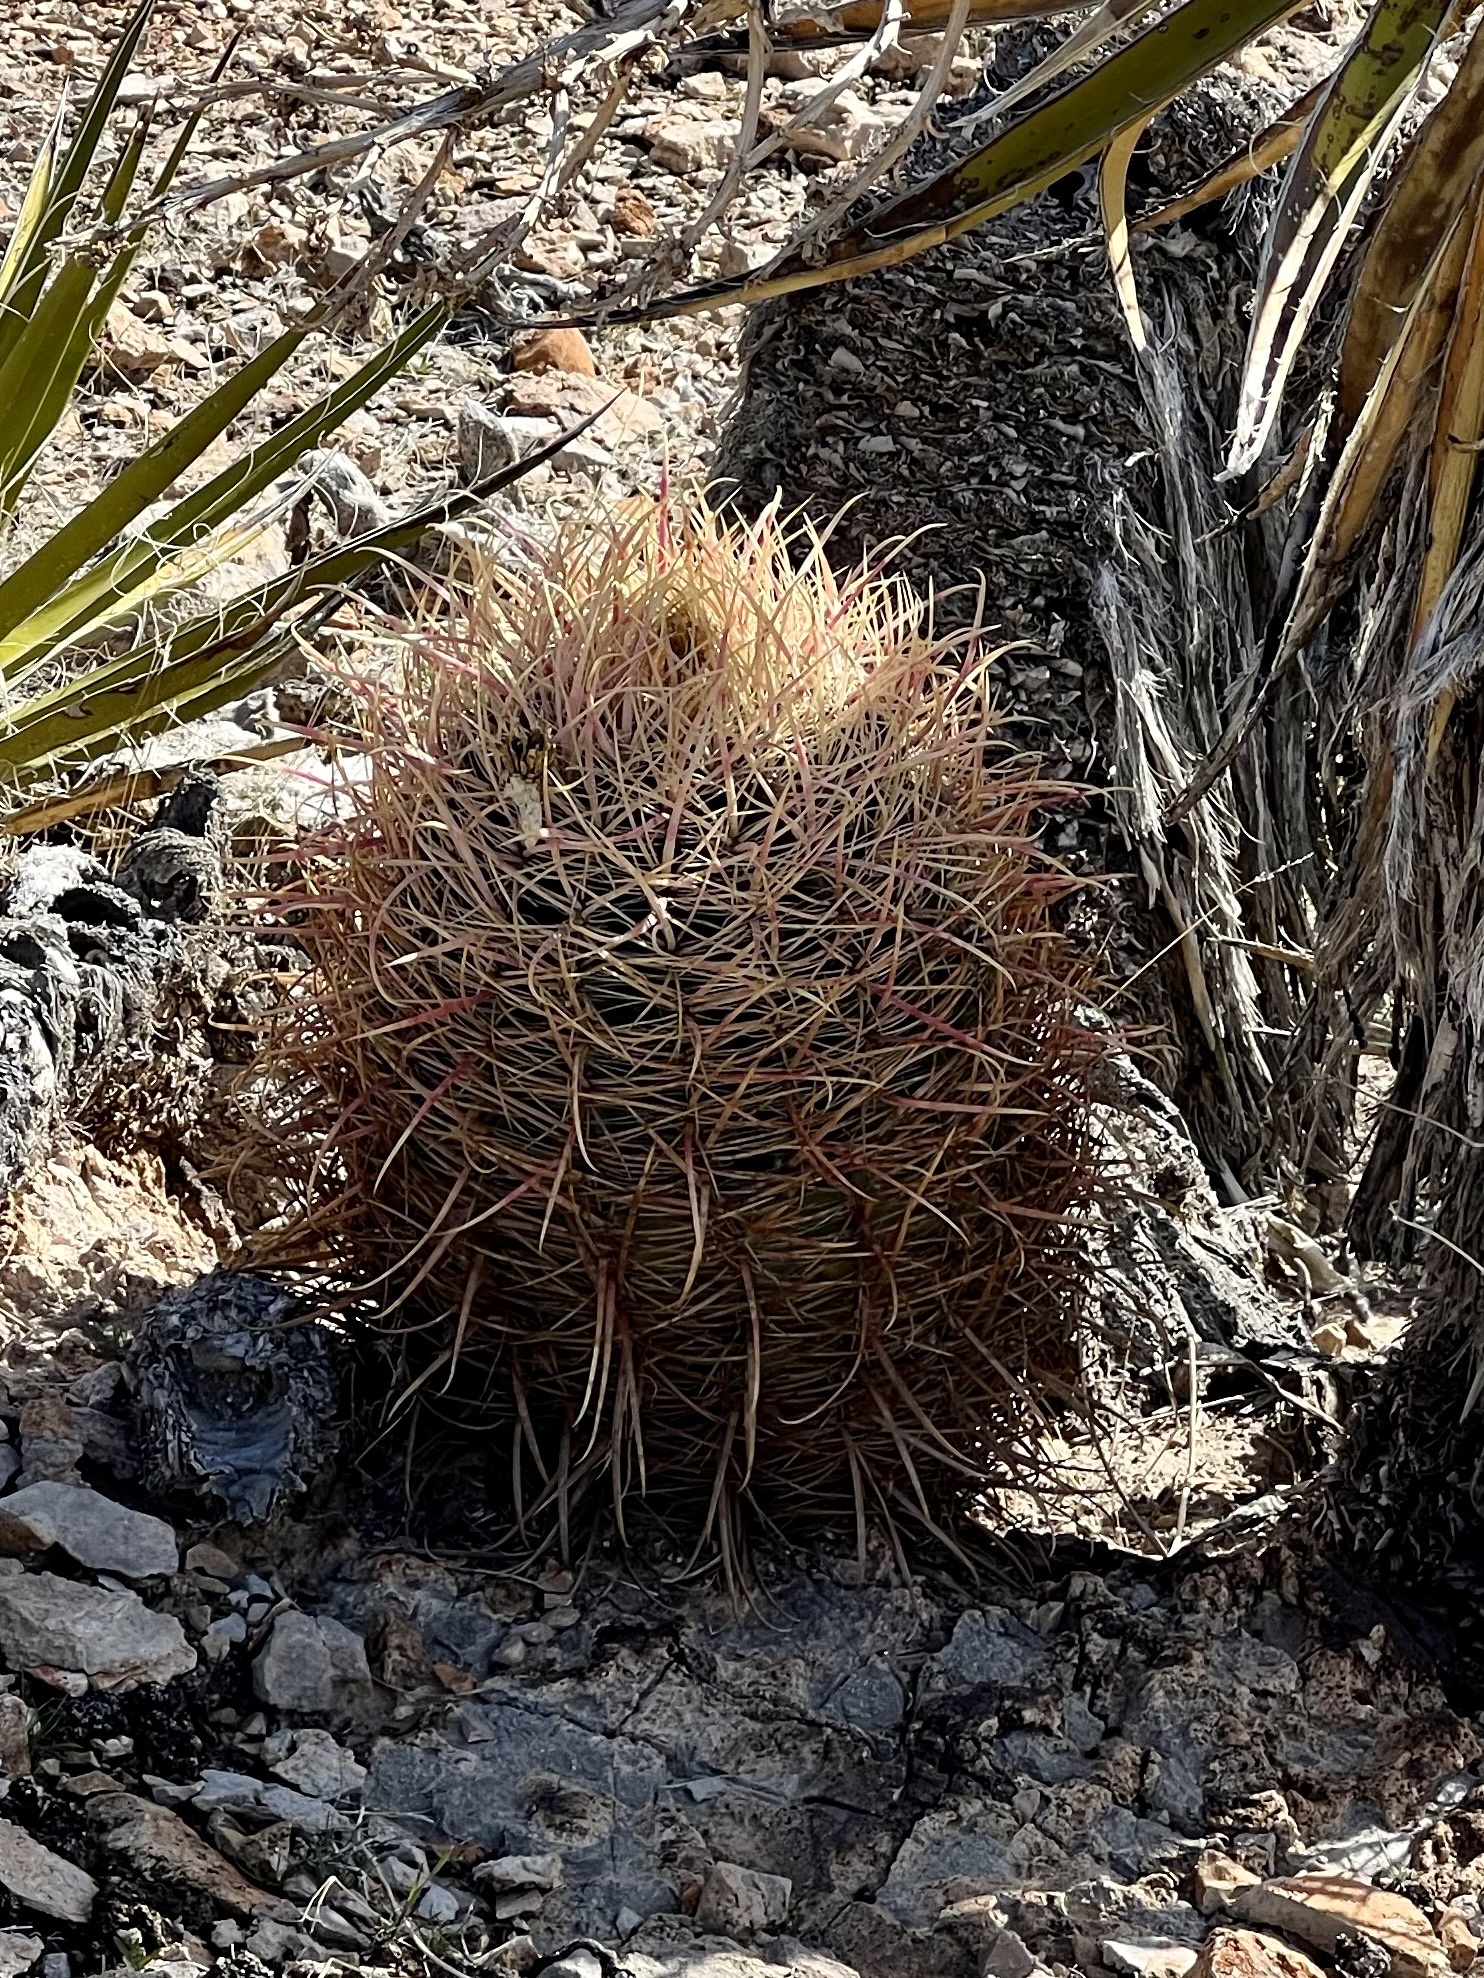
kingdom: Plantae
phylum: Tracheophyta
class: Magnoliopsida
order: Caryophyllales
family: Cactaceae
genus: Ferocactus
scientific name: Ferocactus cylindraceus
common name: California barrel cactus
